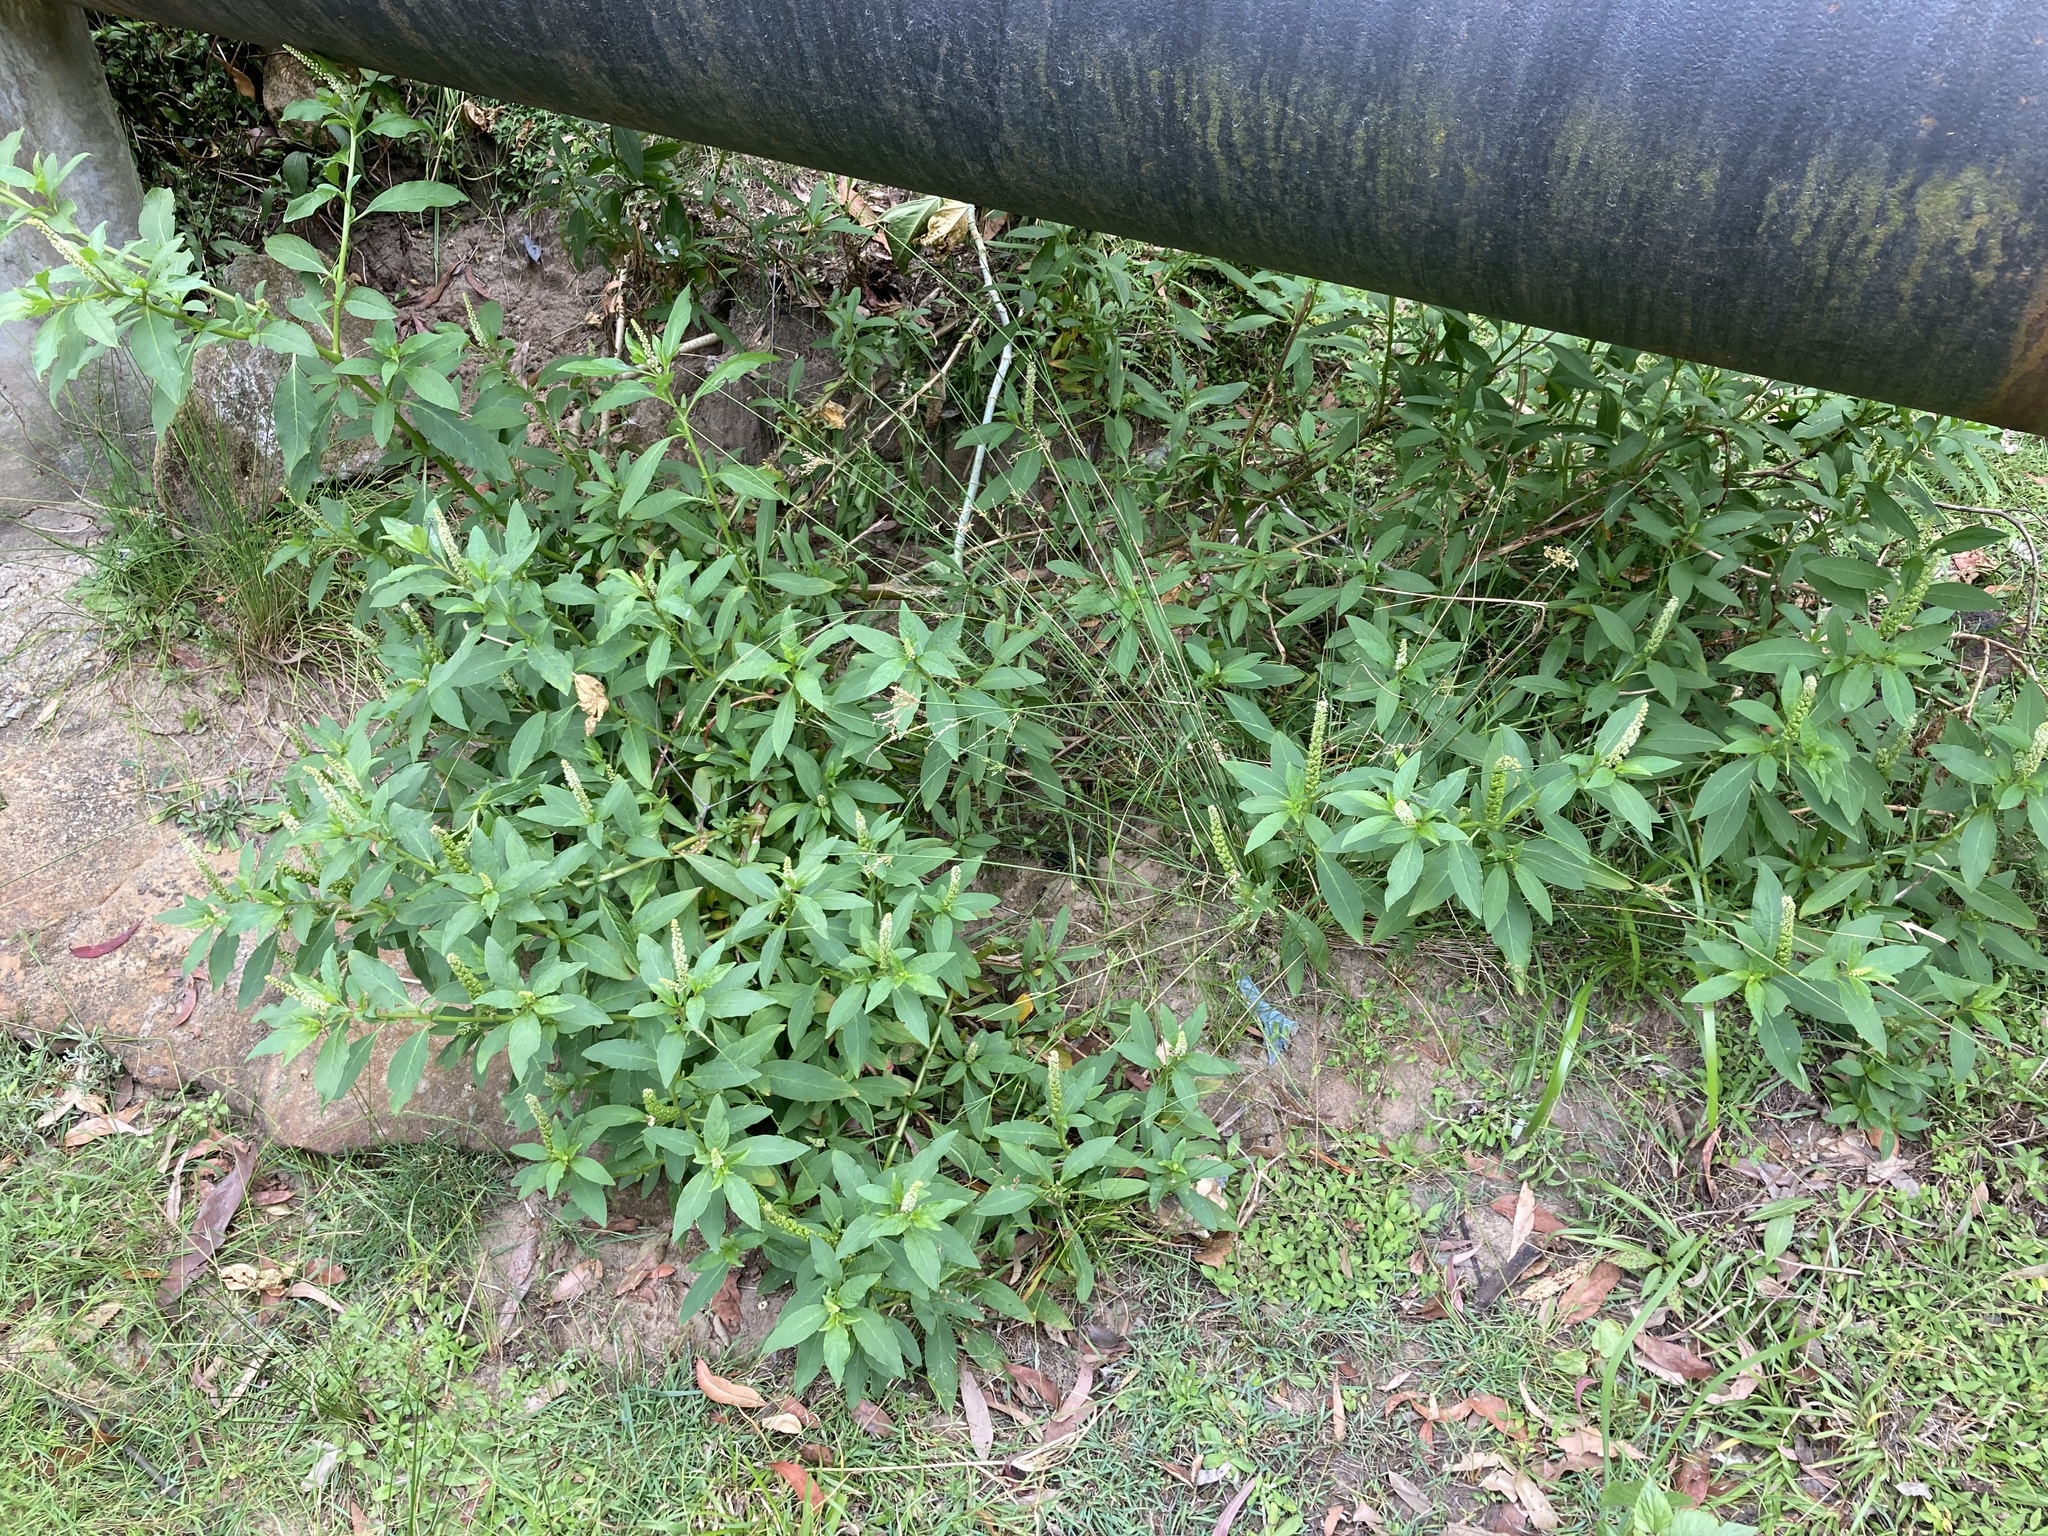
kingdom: Plantae
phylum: Tracheophyta
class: Magnoliopsida
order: Caryophyllales
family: Phytolaccaceae
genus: Phytolacca
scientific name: Phytolacca icosandra
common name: Button pokeweed
